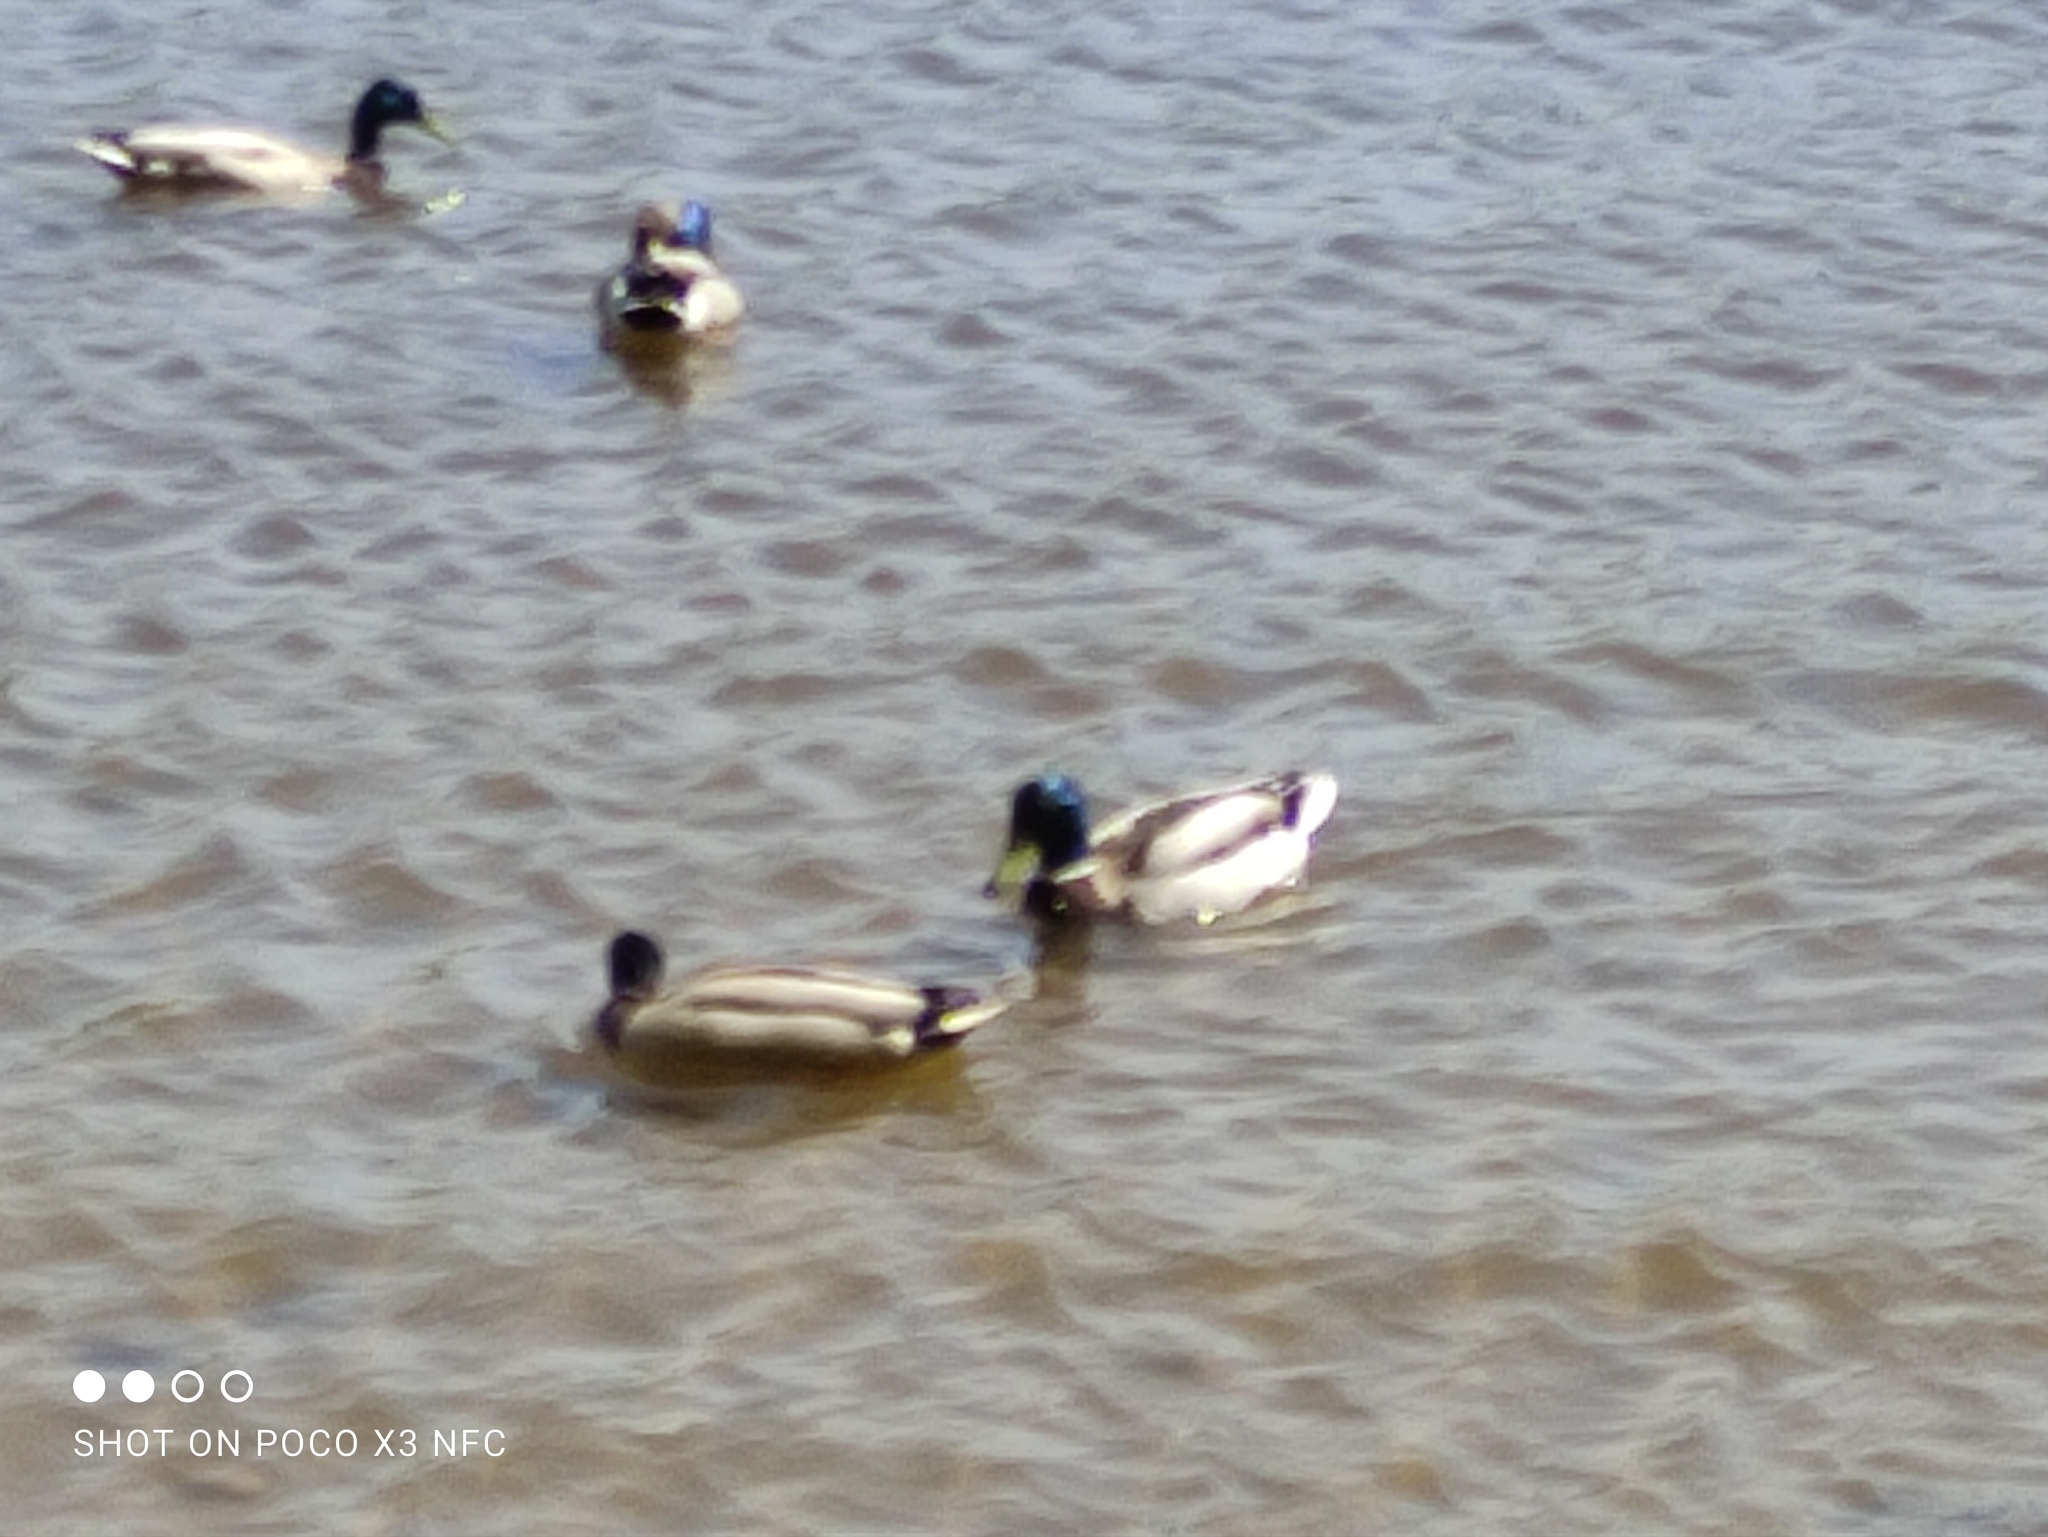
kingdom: Animalia
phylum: Chordata
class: Aves
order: Anseriformes
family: Anatidae
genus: Anas
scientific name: Anas platyrhynchos
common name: Mallard
